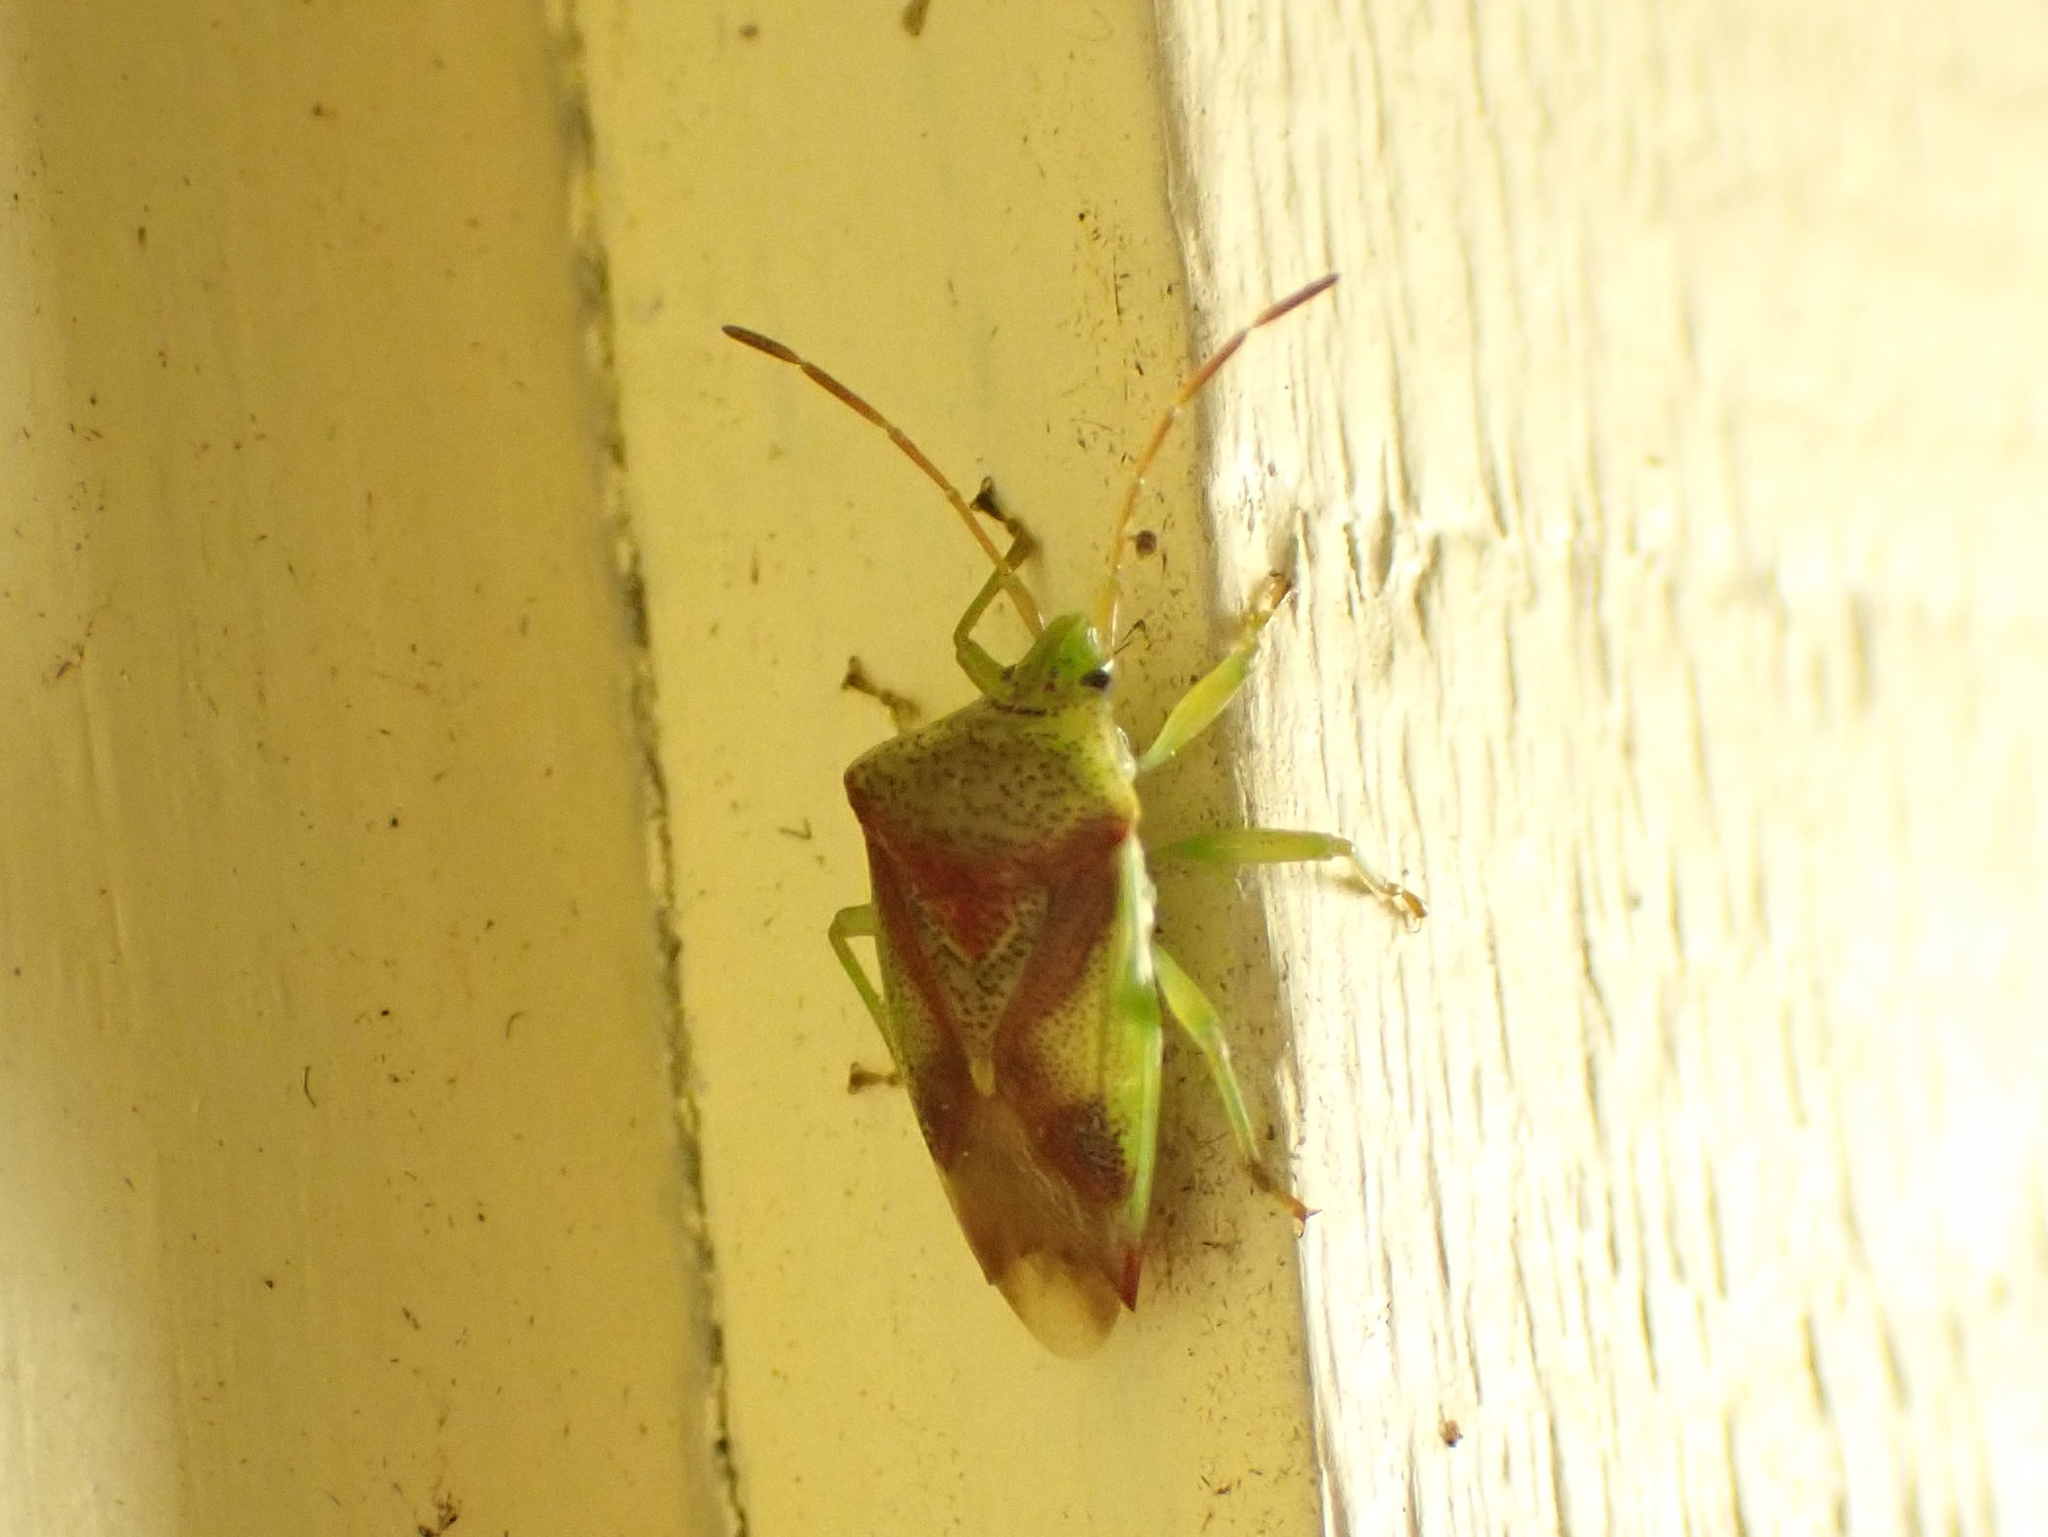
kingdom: Animalia
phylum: Arthropoda
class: Insecta
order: Hemiptera
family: Acanthosomatidae
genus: Elasmostethus
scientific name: Elasmostethus cruciatus
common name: Red-cross shield bug
